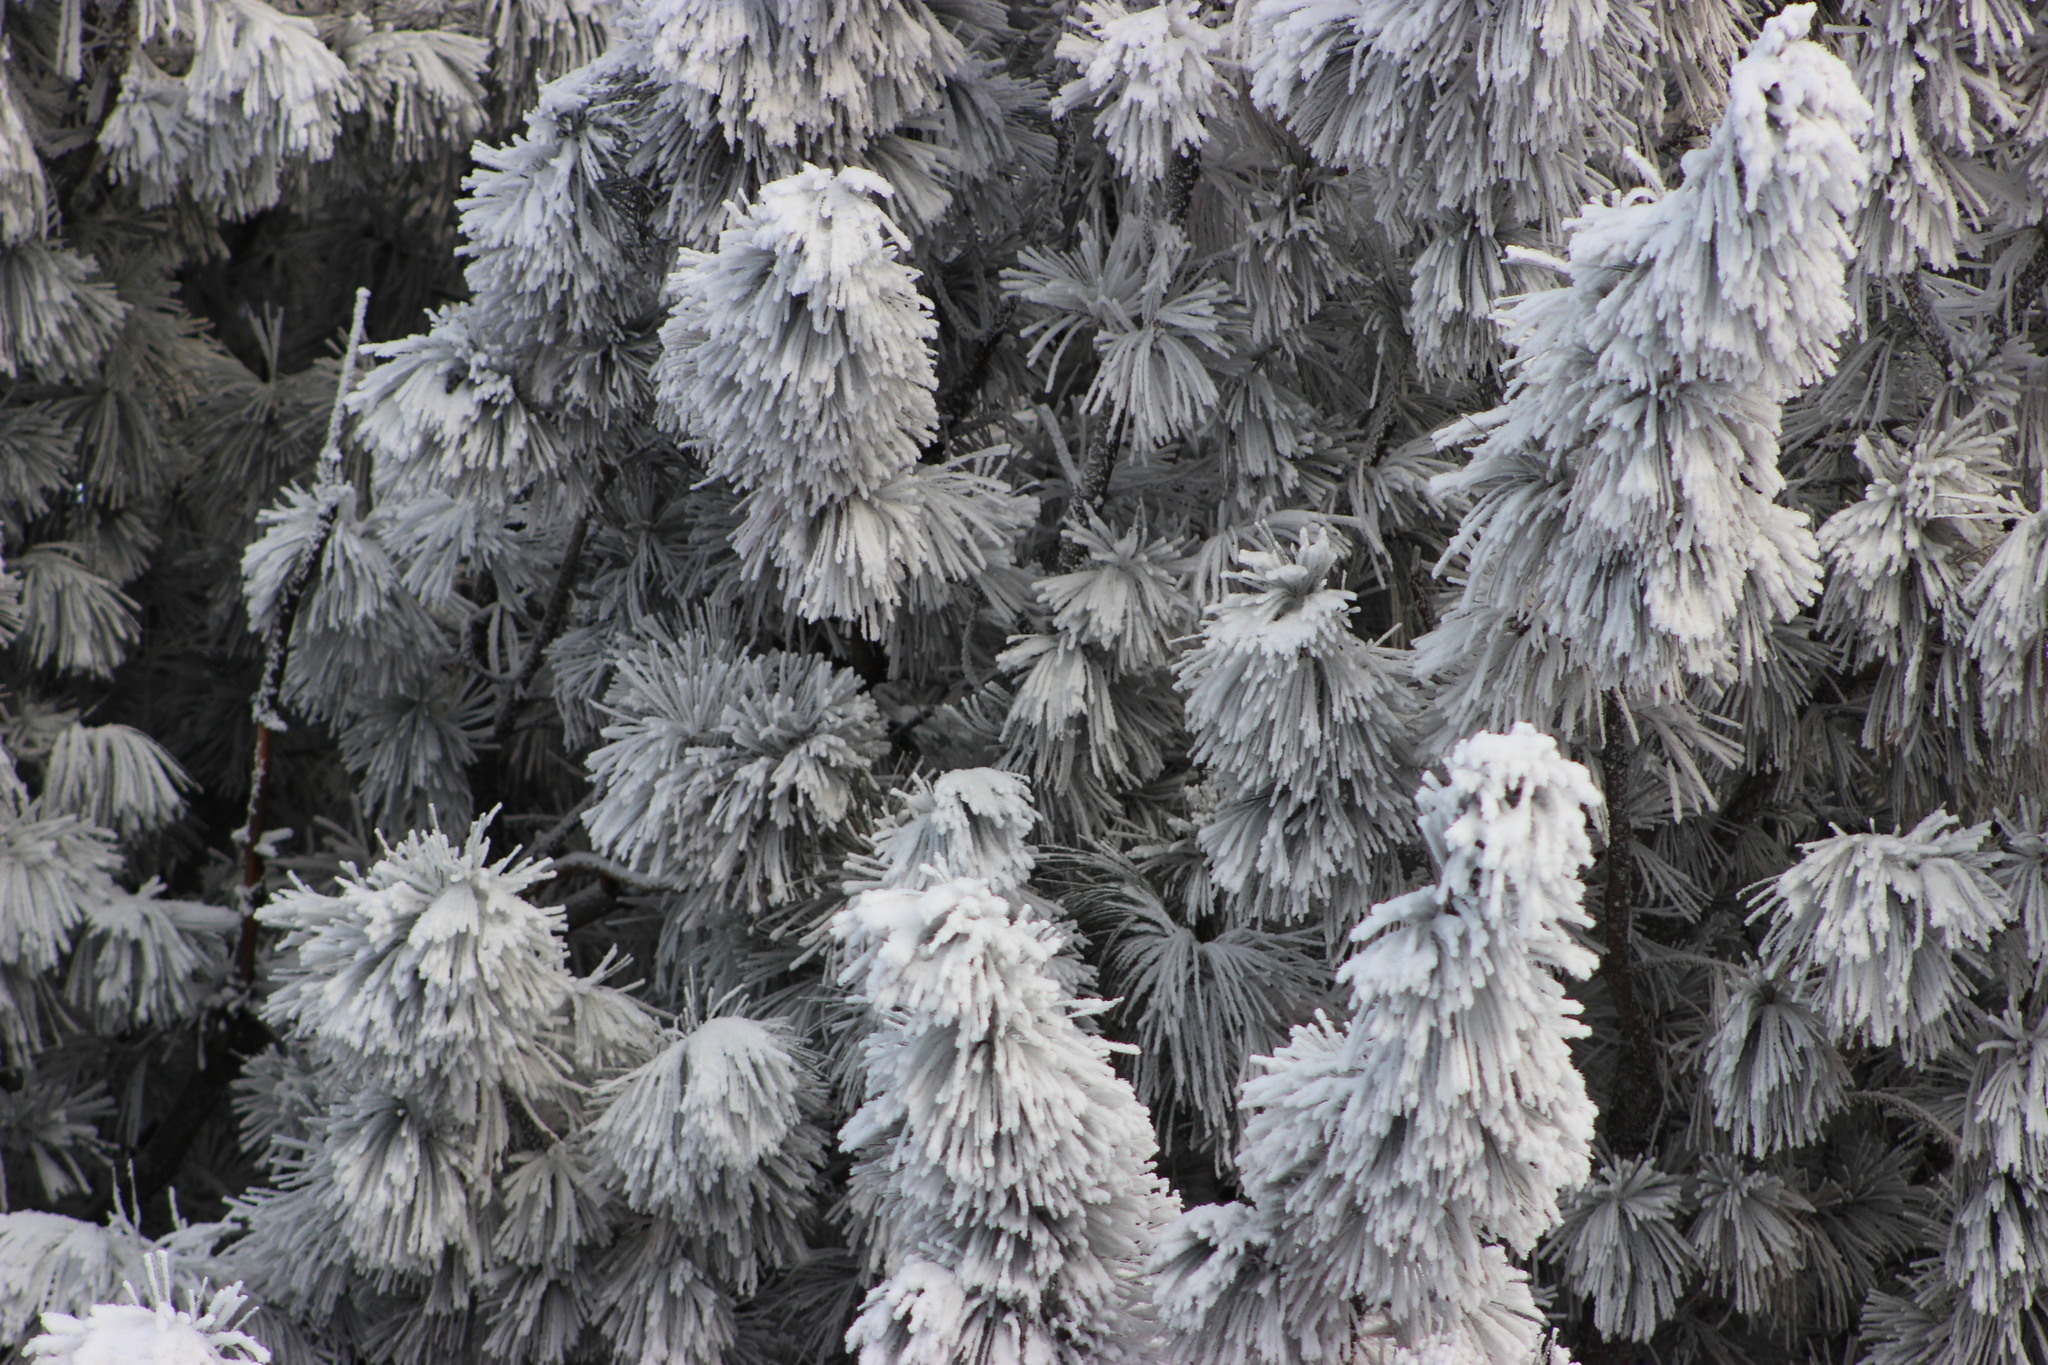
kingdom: Plantae
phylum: Tracheophyta
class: Pinopsida
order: Pinales
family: Pinaceae
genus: Pinus
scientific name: Pinus sibirica
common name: Siberian pine
